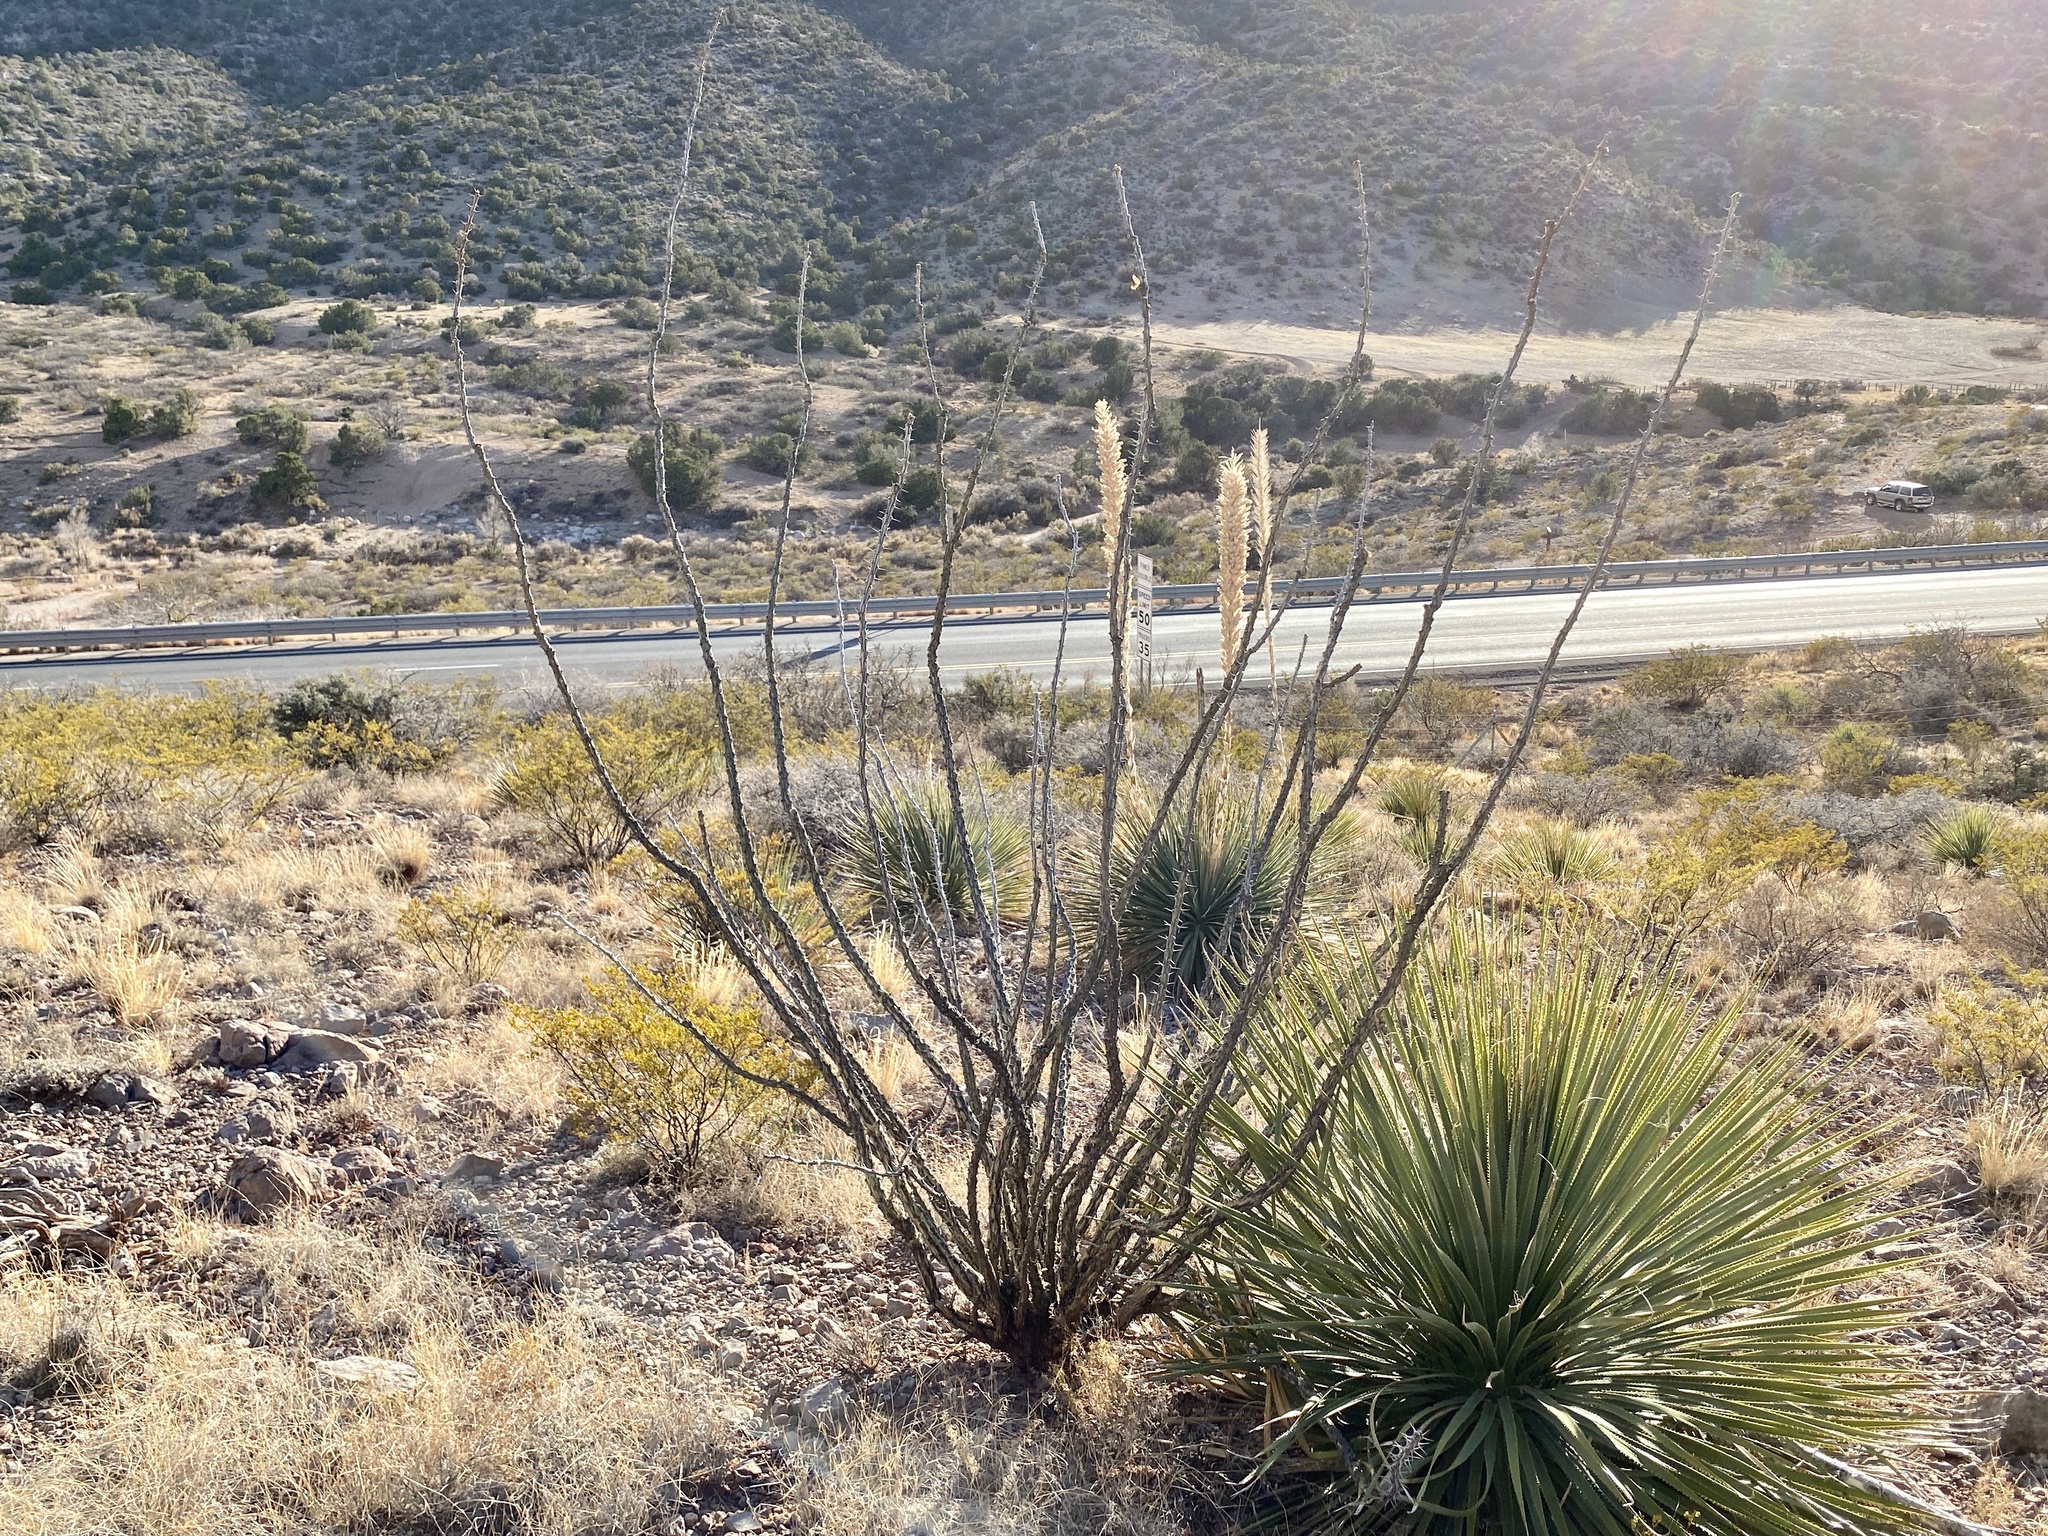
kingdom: Plantae
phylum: Tracheophyta
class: Magnoliopsida
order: Ericales
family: Fouquieriaceae
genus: Fouquieria
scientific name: Fouquieria splendens
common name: Vine-cactus
